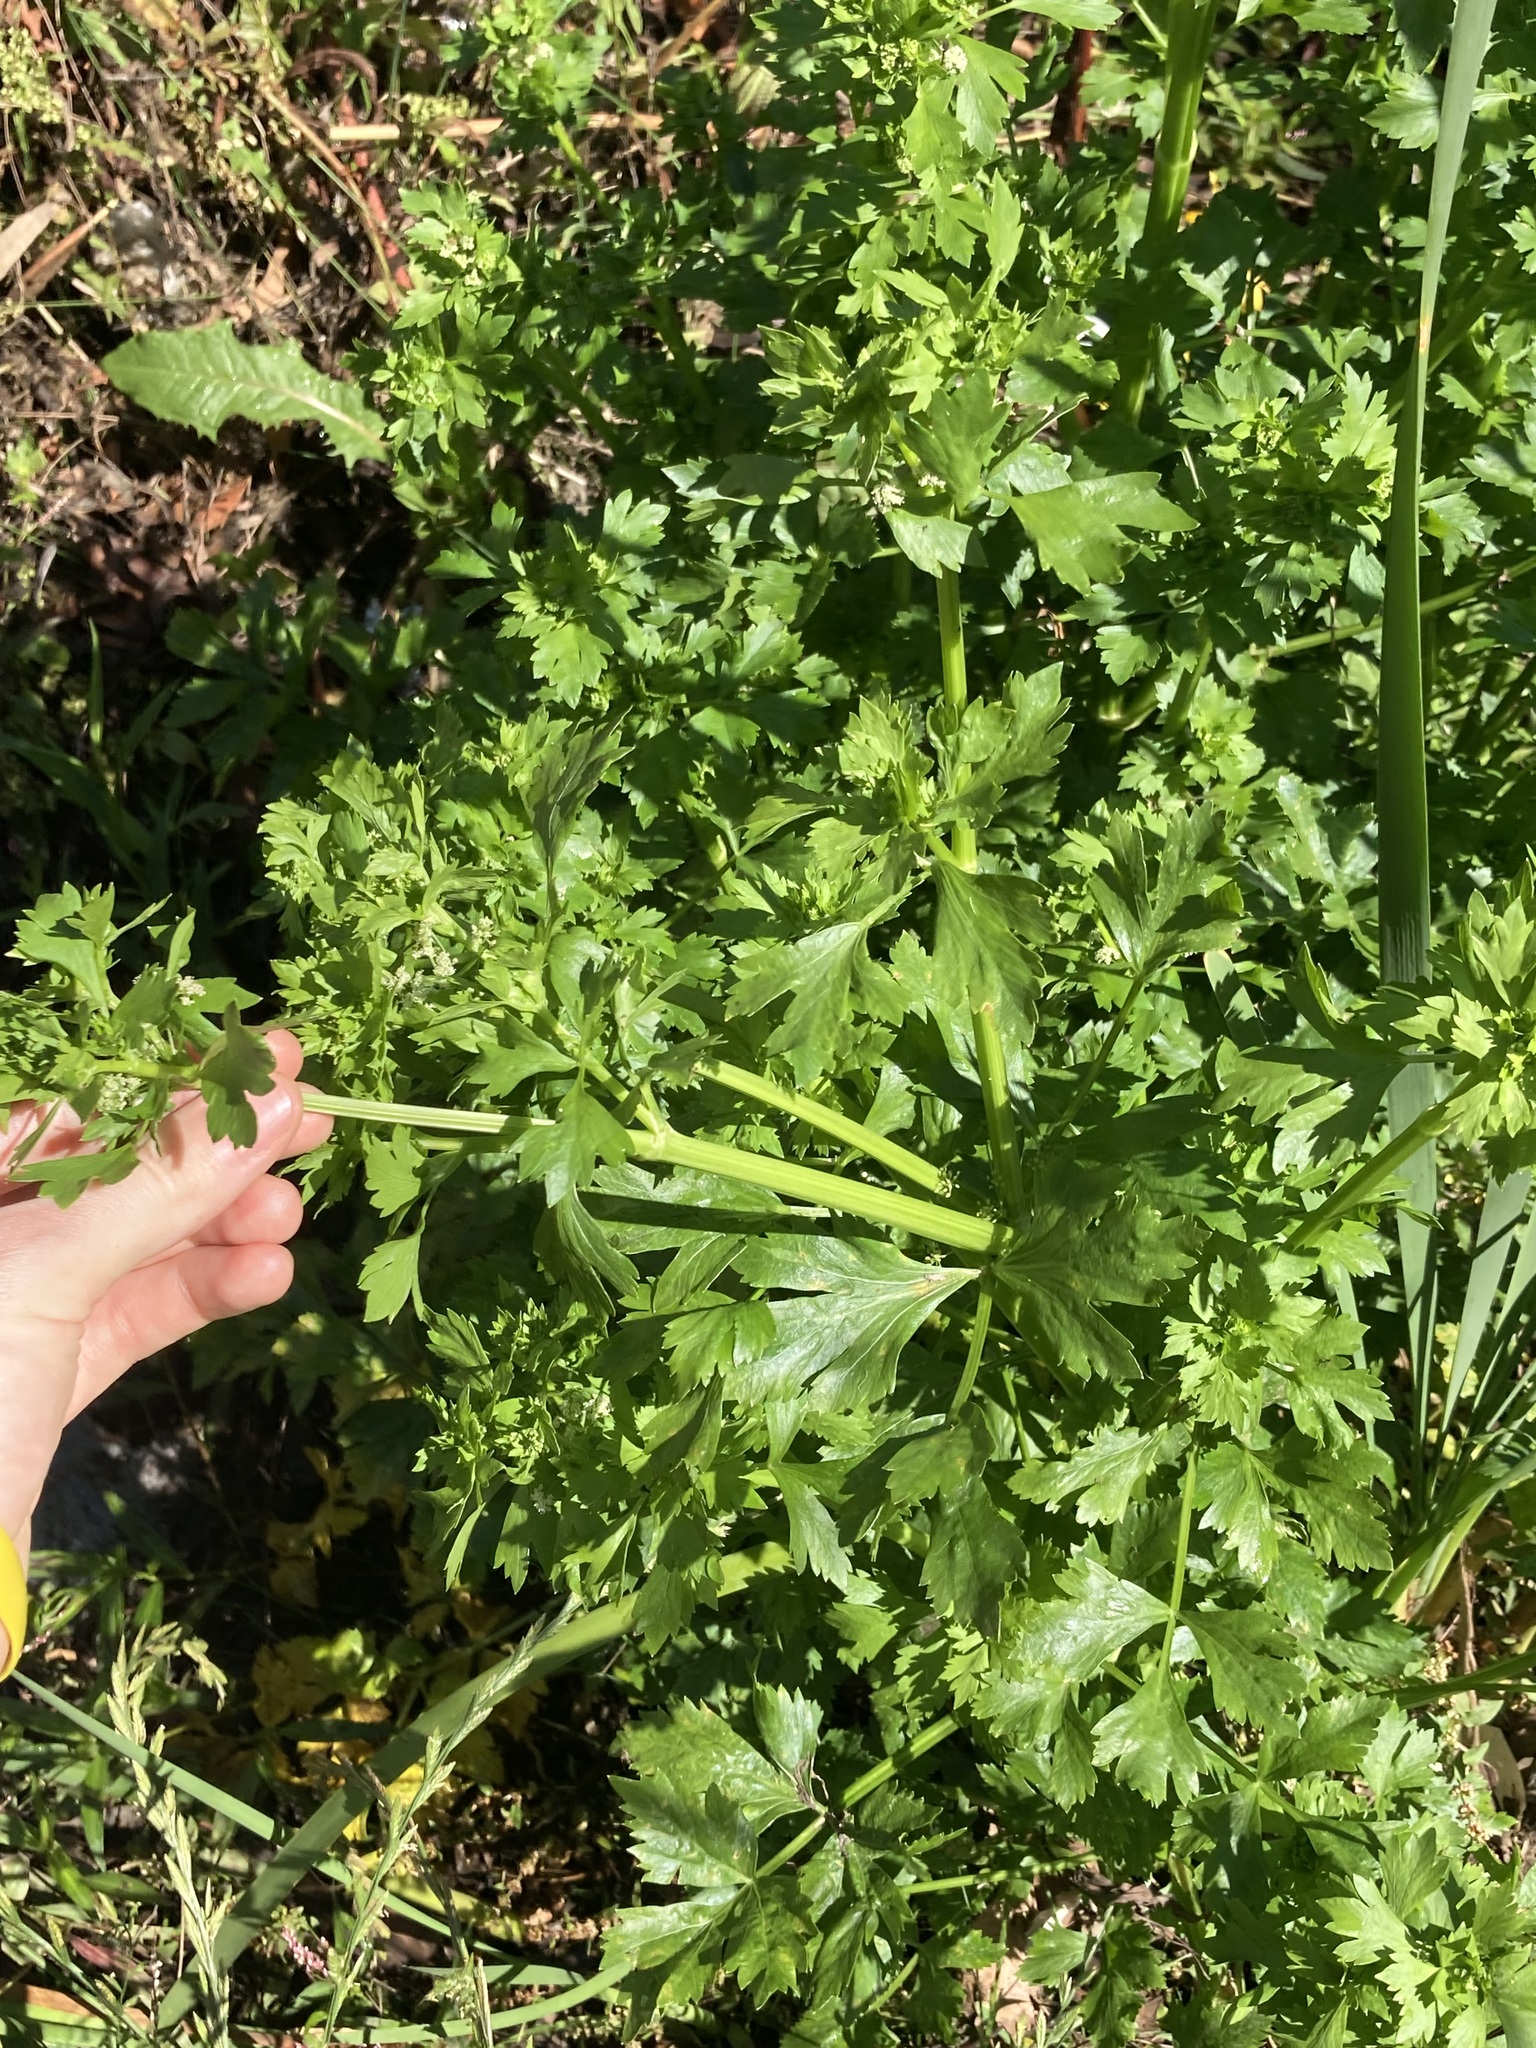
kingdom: Plantae
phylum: Tracheophyta
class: Magnoliopsida
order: Apiales
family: Apiaceae
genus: Apium
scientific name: Apium graveolens
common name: Wild celery
